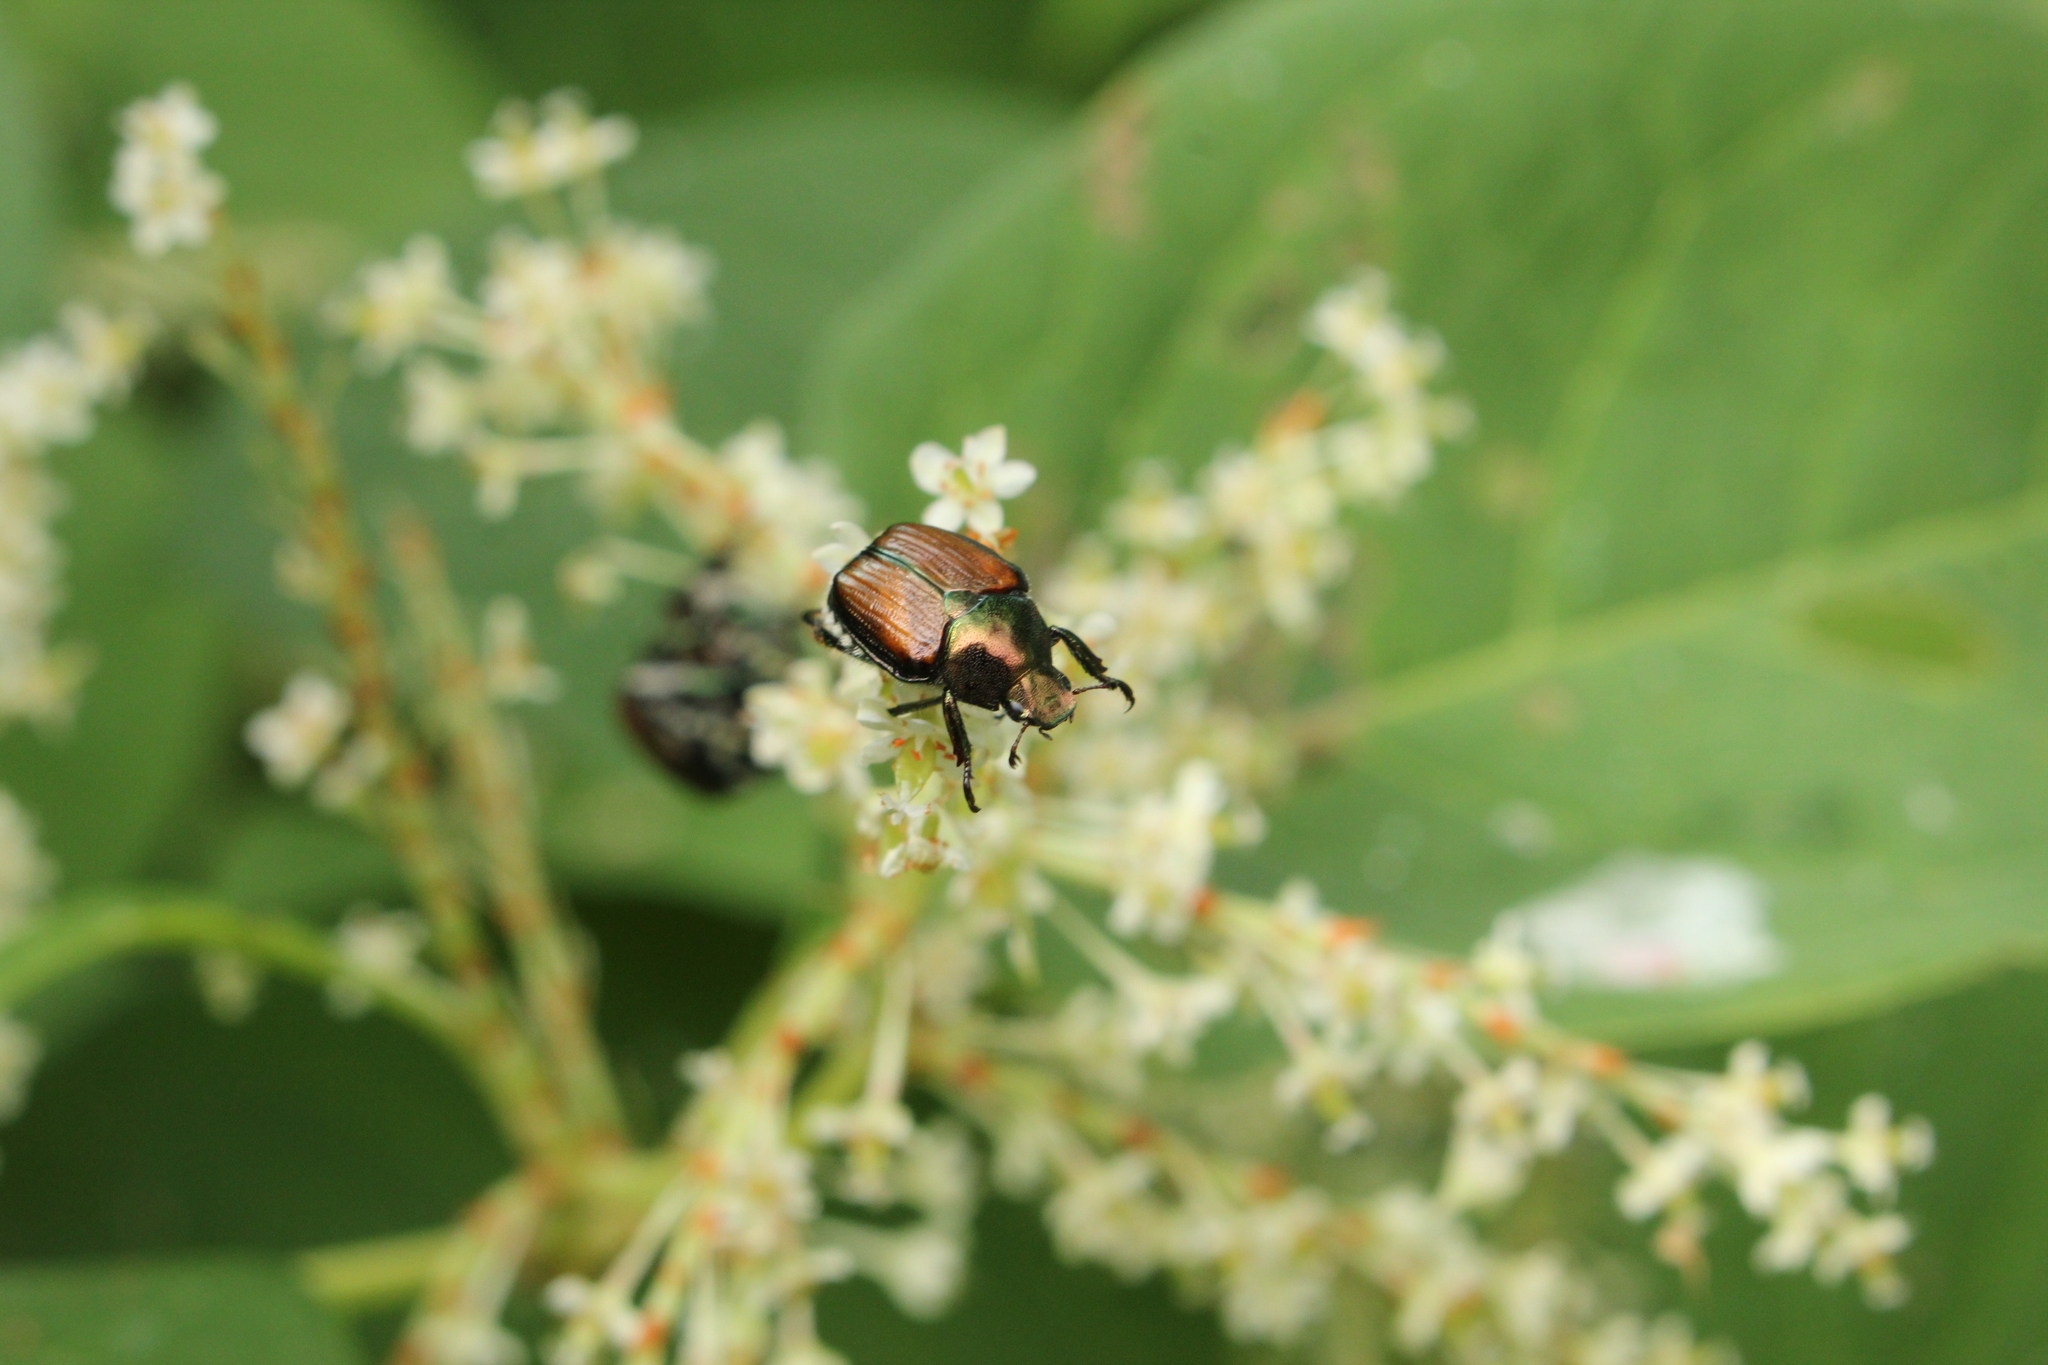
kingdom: Animalia
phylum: Arthropoda
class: Insecta
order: Coleoptera
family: Scarabaeidae
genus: Popillia
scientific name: Popillia japonica
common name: Japanese beetle
